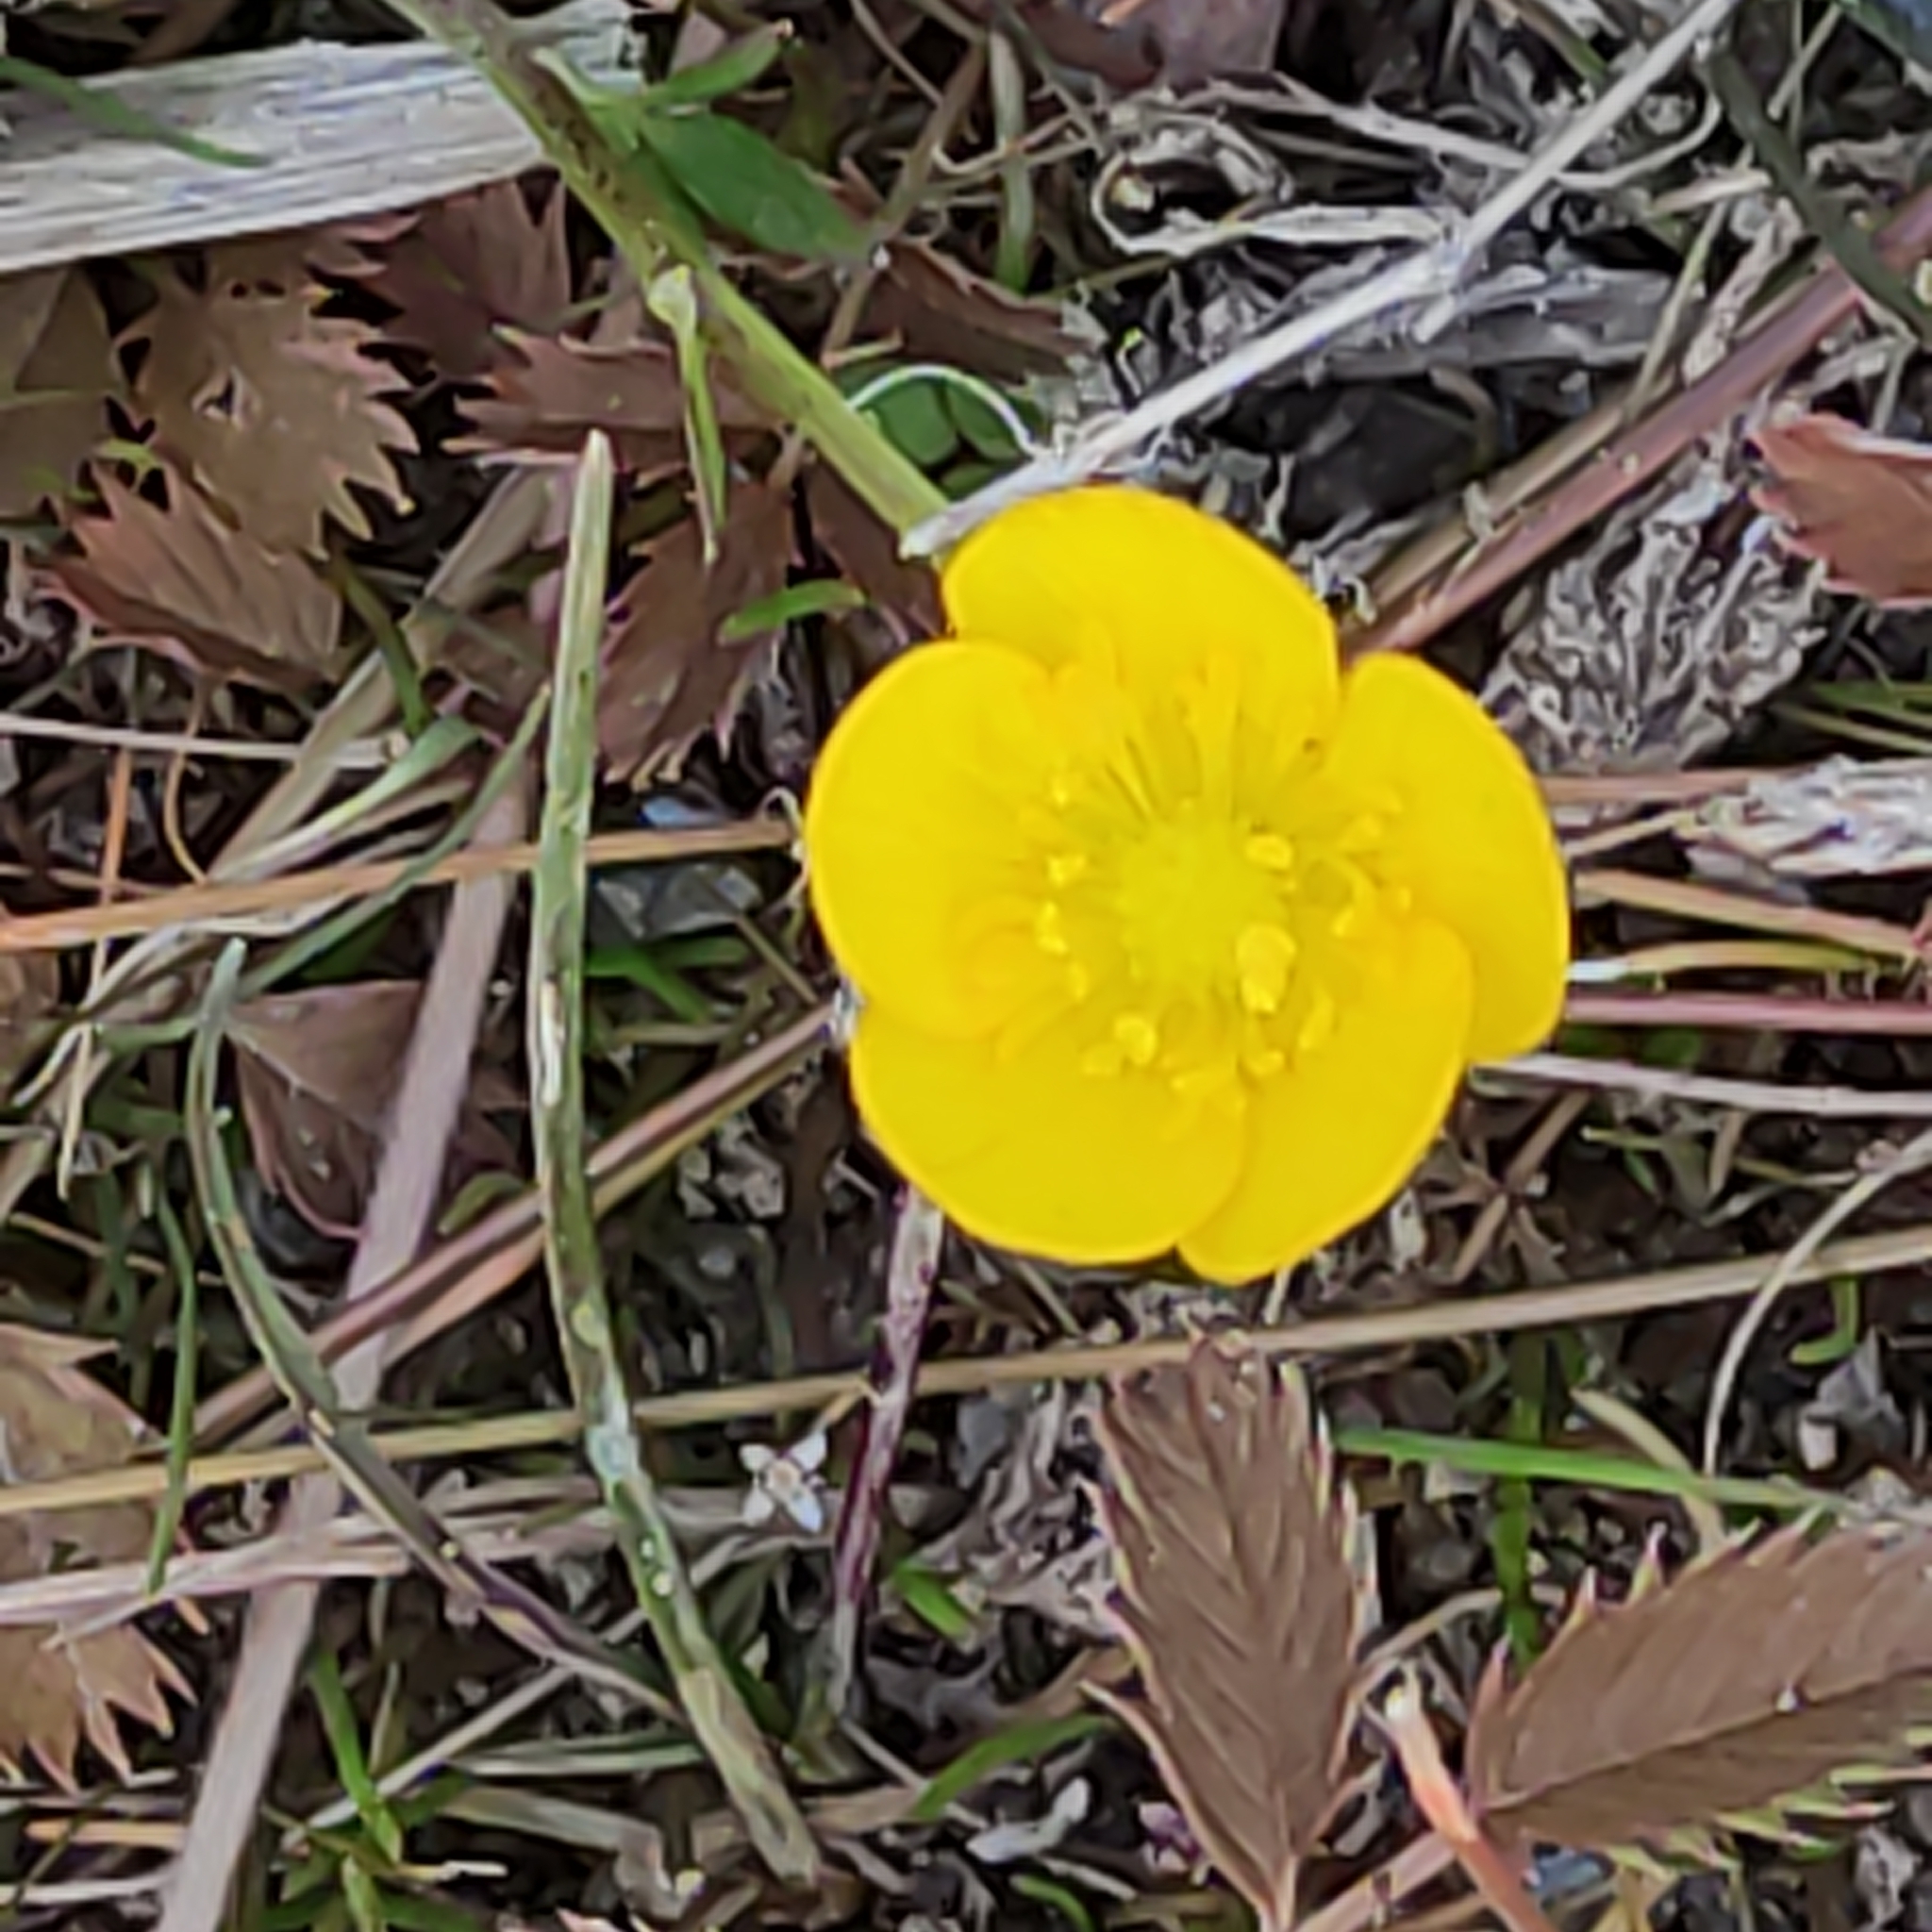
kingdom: Plantae
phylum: Tracheophyta
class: Magnoliopsida
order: Rosales
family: Rosaceae
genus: Argentina
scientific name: Argentina anserinoides
